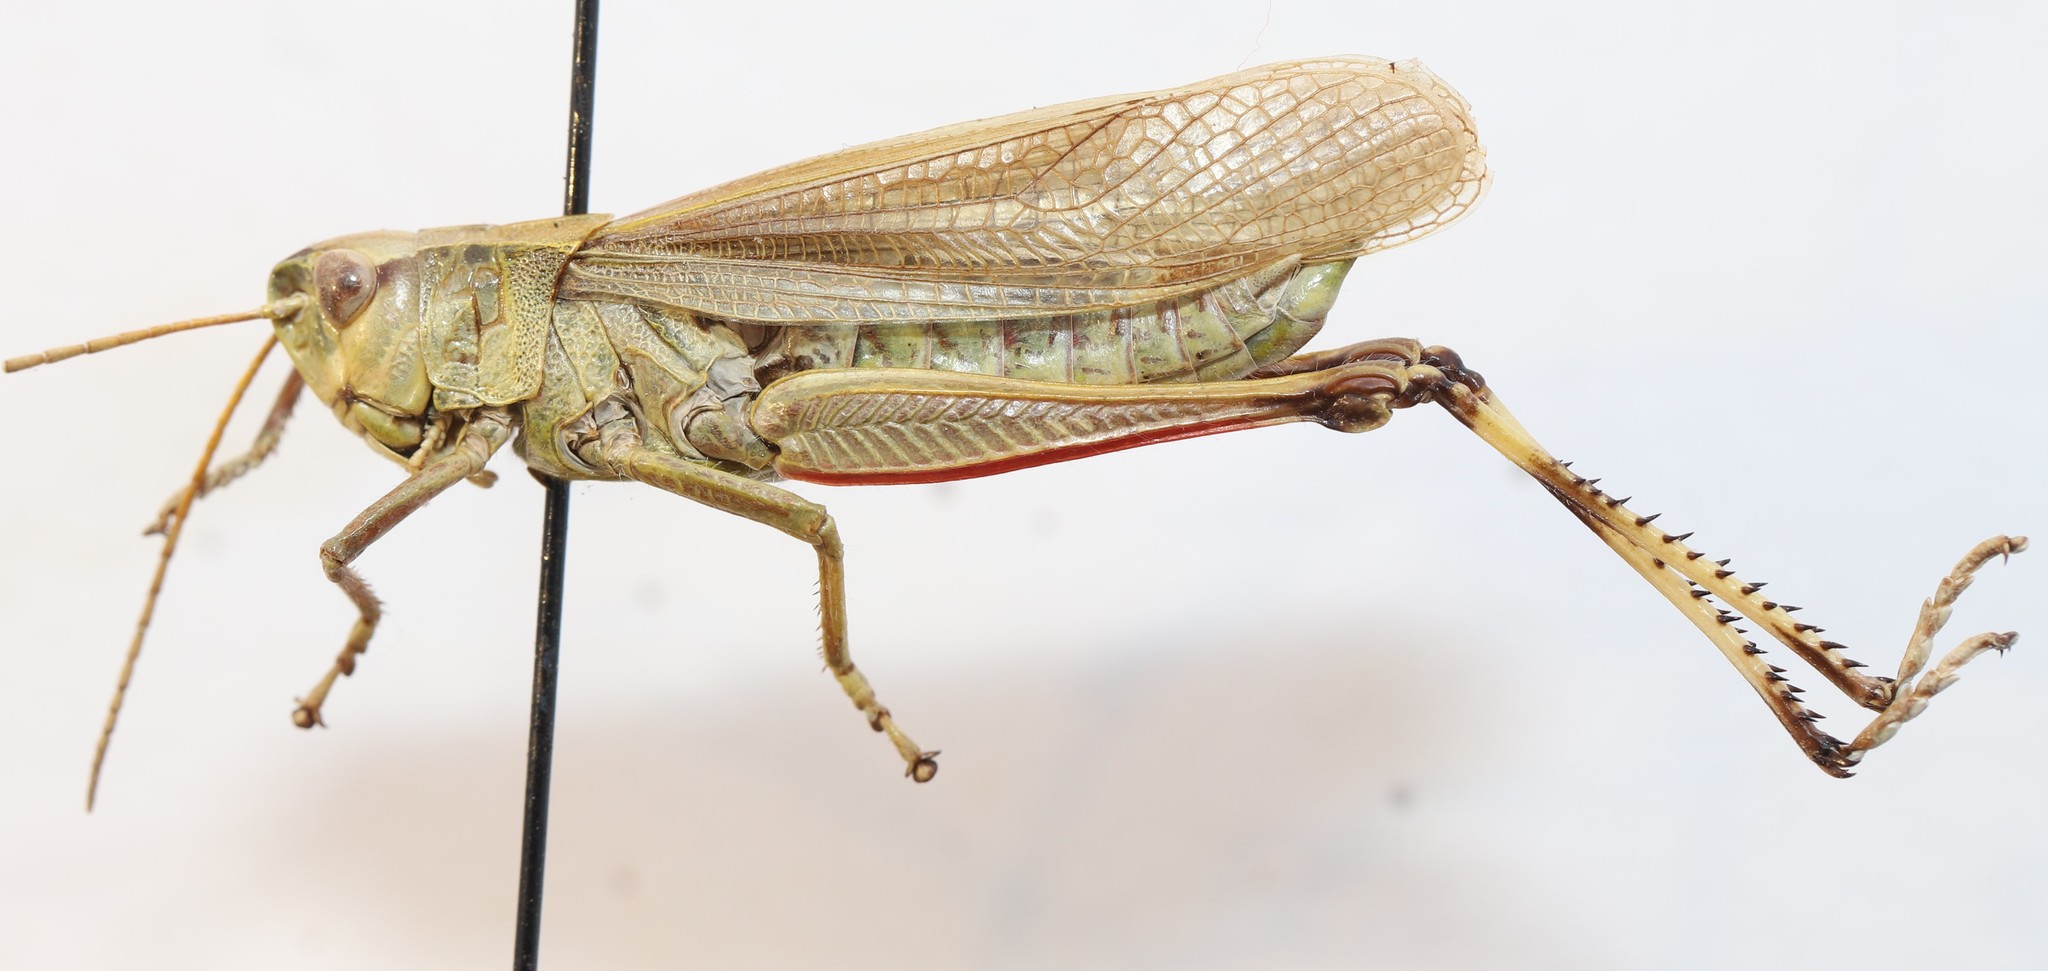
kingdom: Animalia
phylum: Arthropoda
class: Insecta
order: Orthoptera
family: Acrididae
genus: Stethophyma
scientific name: Stethophyma gracile
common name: Graceful sedge grasshopper
